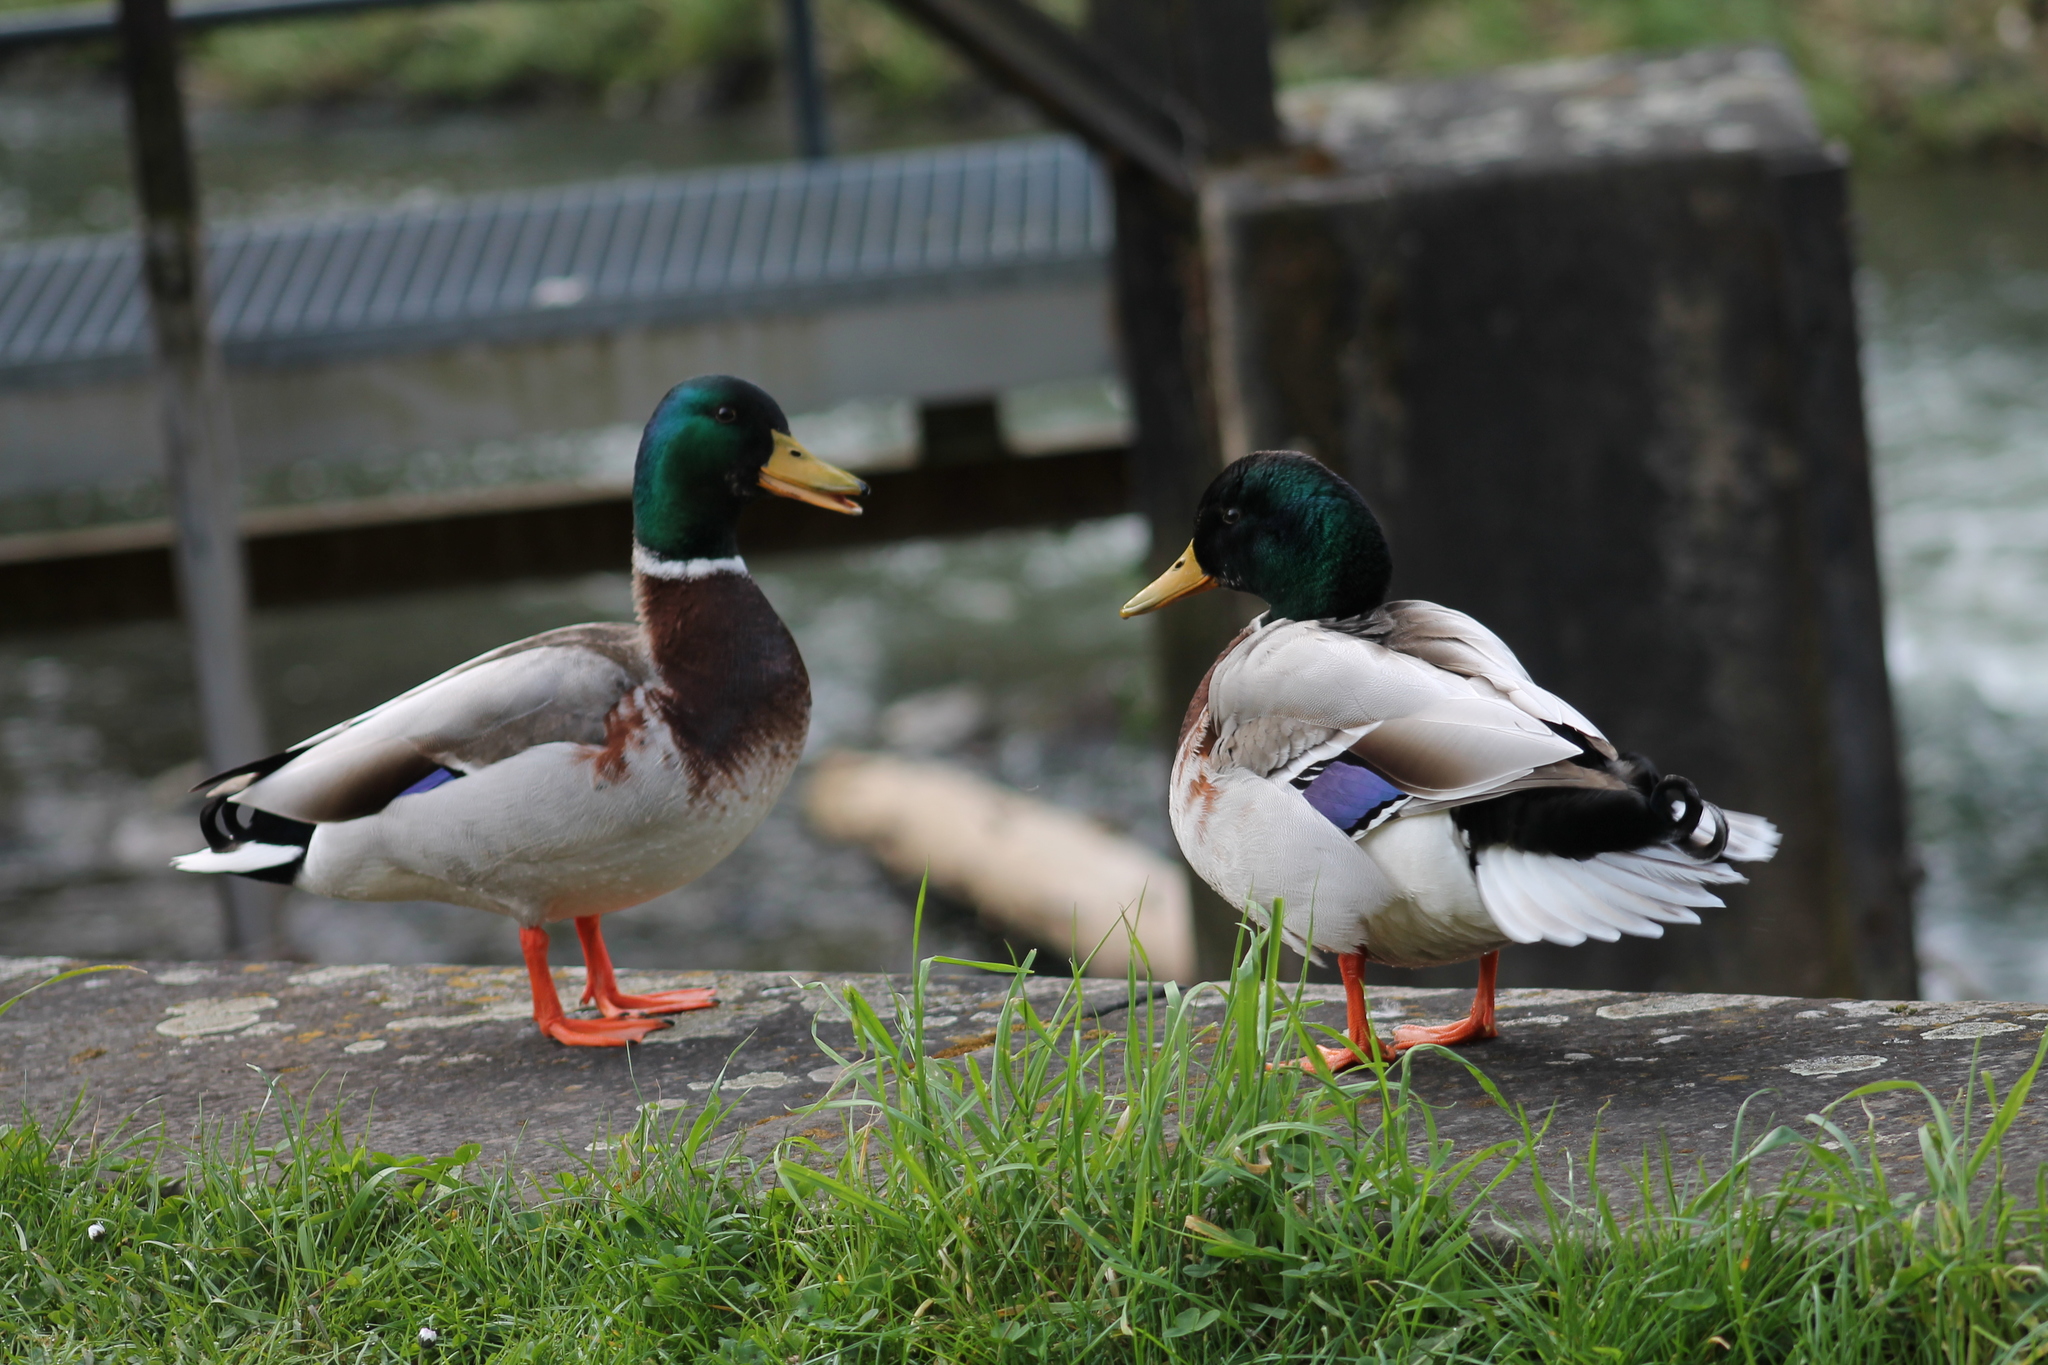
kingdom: Animalia
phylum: Chordata
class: Aves
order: Anseriformes
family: Anatidae
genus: Anas
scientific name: Anas platyrhynchos
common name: Mallard
